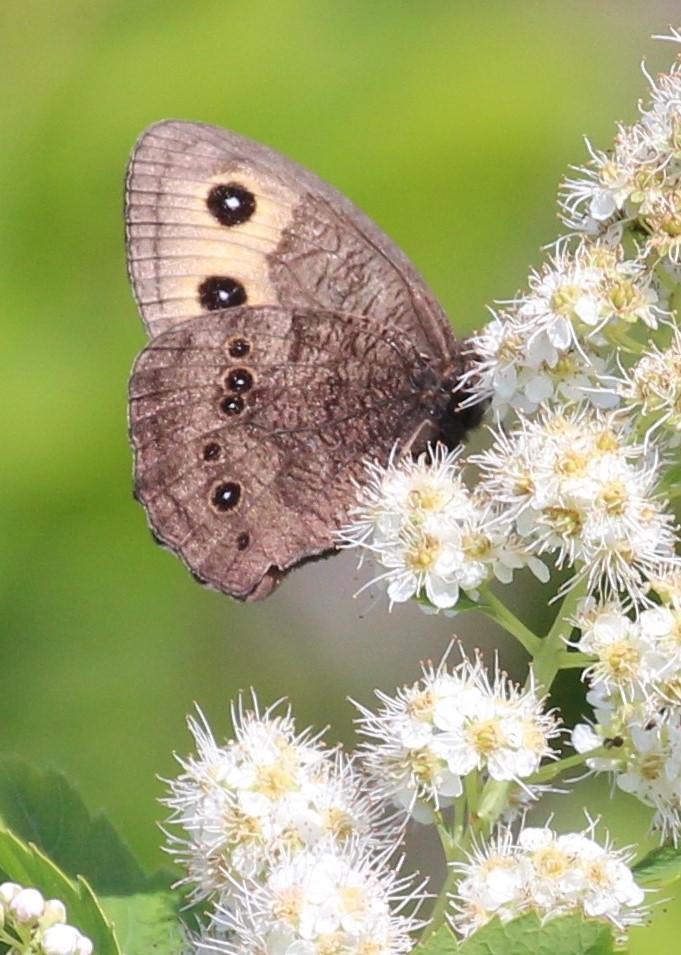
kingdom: Animalia
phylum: Arthropoda
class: Insecta
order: Lepidoptera
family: Nymphalidae
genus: Cercyonis
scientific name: Cercyonis pegala
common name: Common wood-nymph
